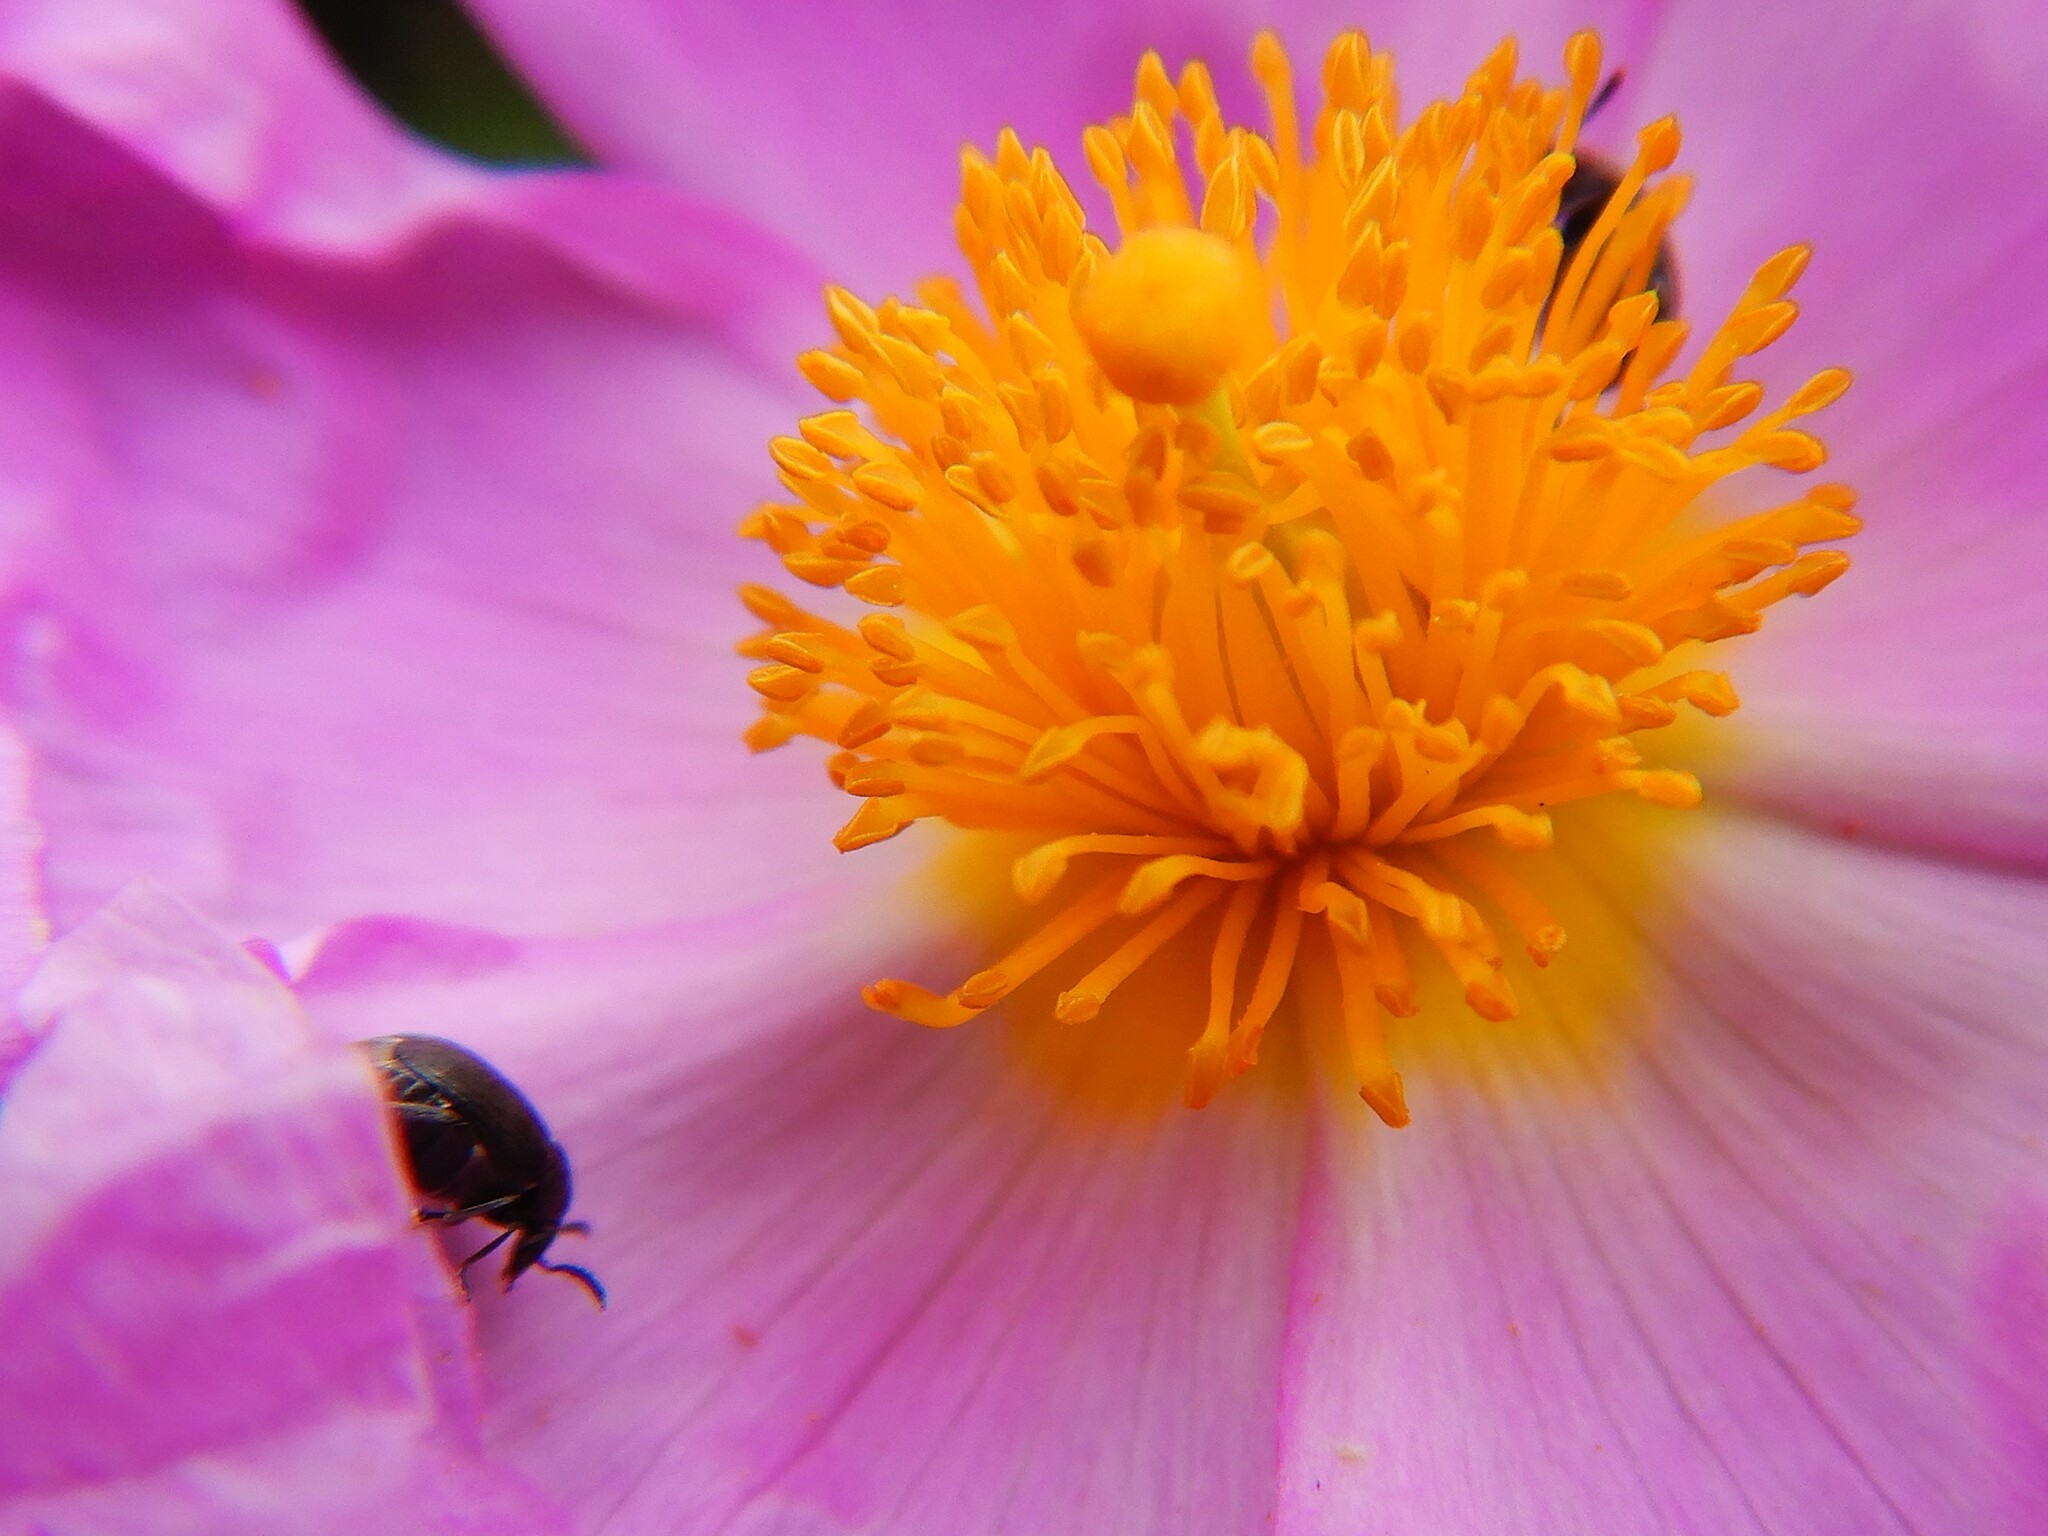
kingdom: Animalia
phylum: Arthropoda
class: Insecta
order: Coleoptera
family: Chrysomelidae
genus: Bruchidius
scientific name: Bruchidius villosus
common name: Scotch broom bruchid
